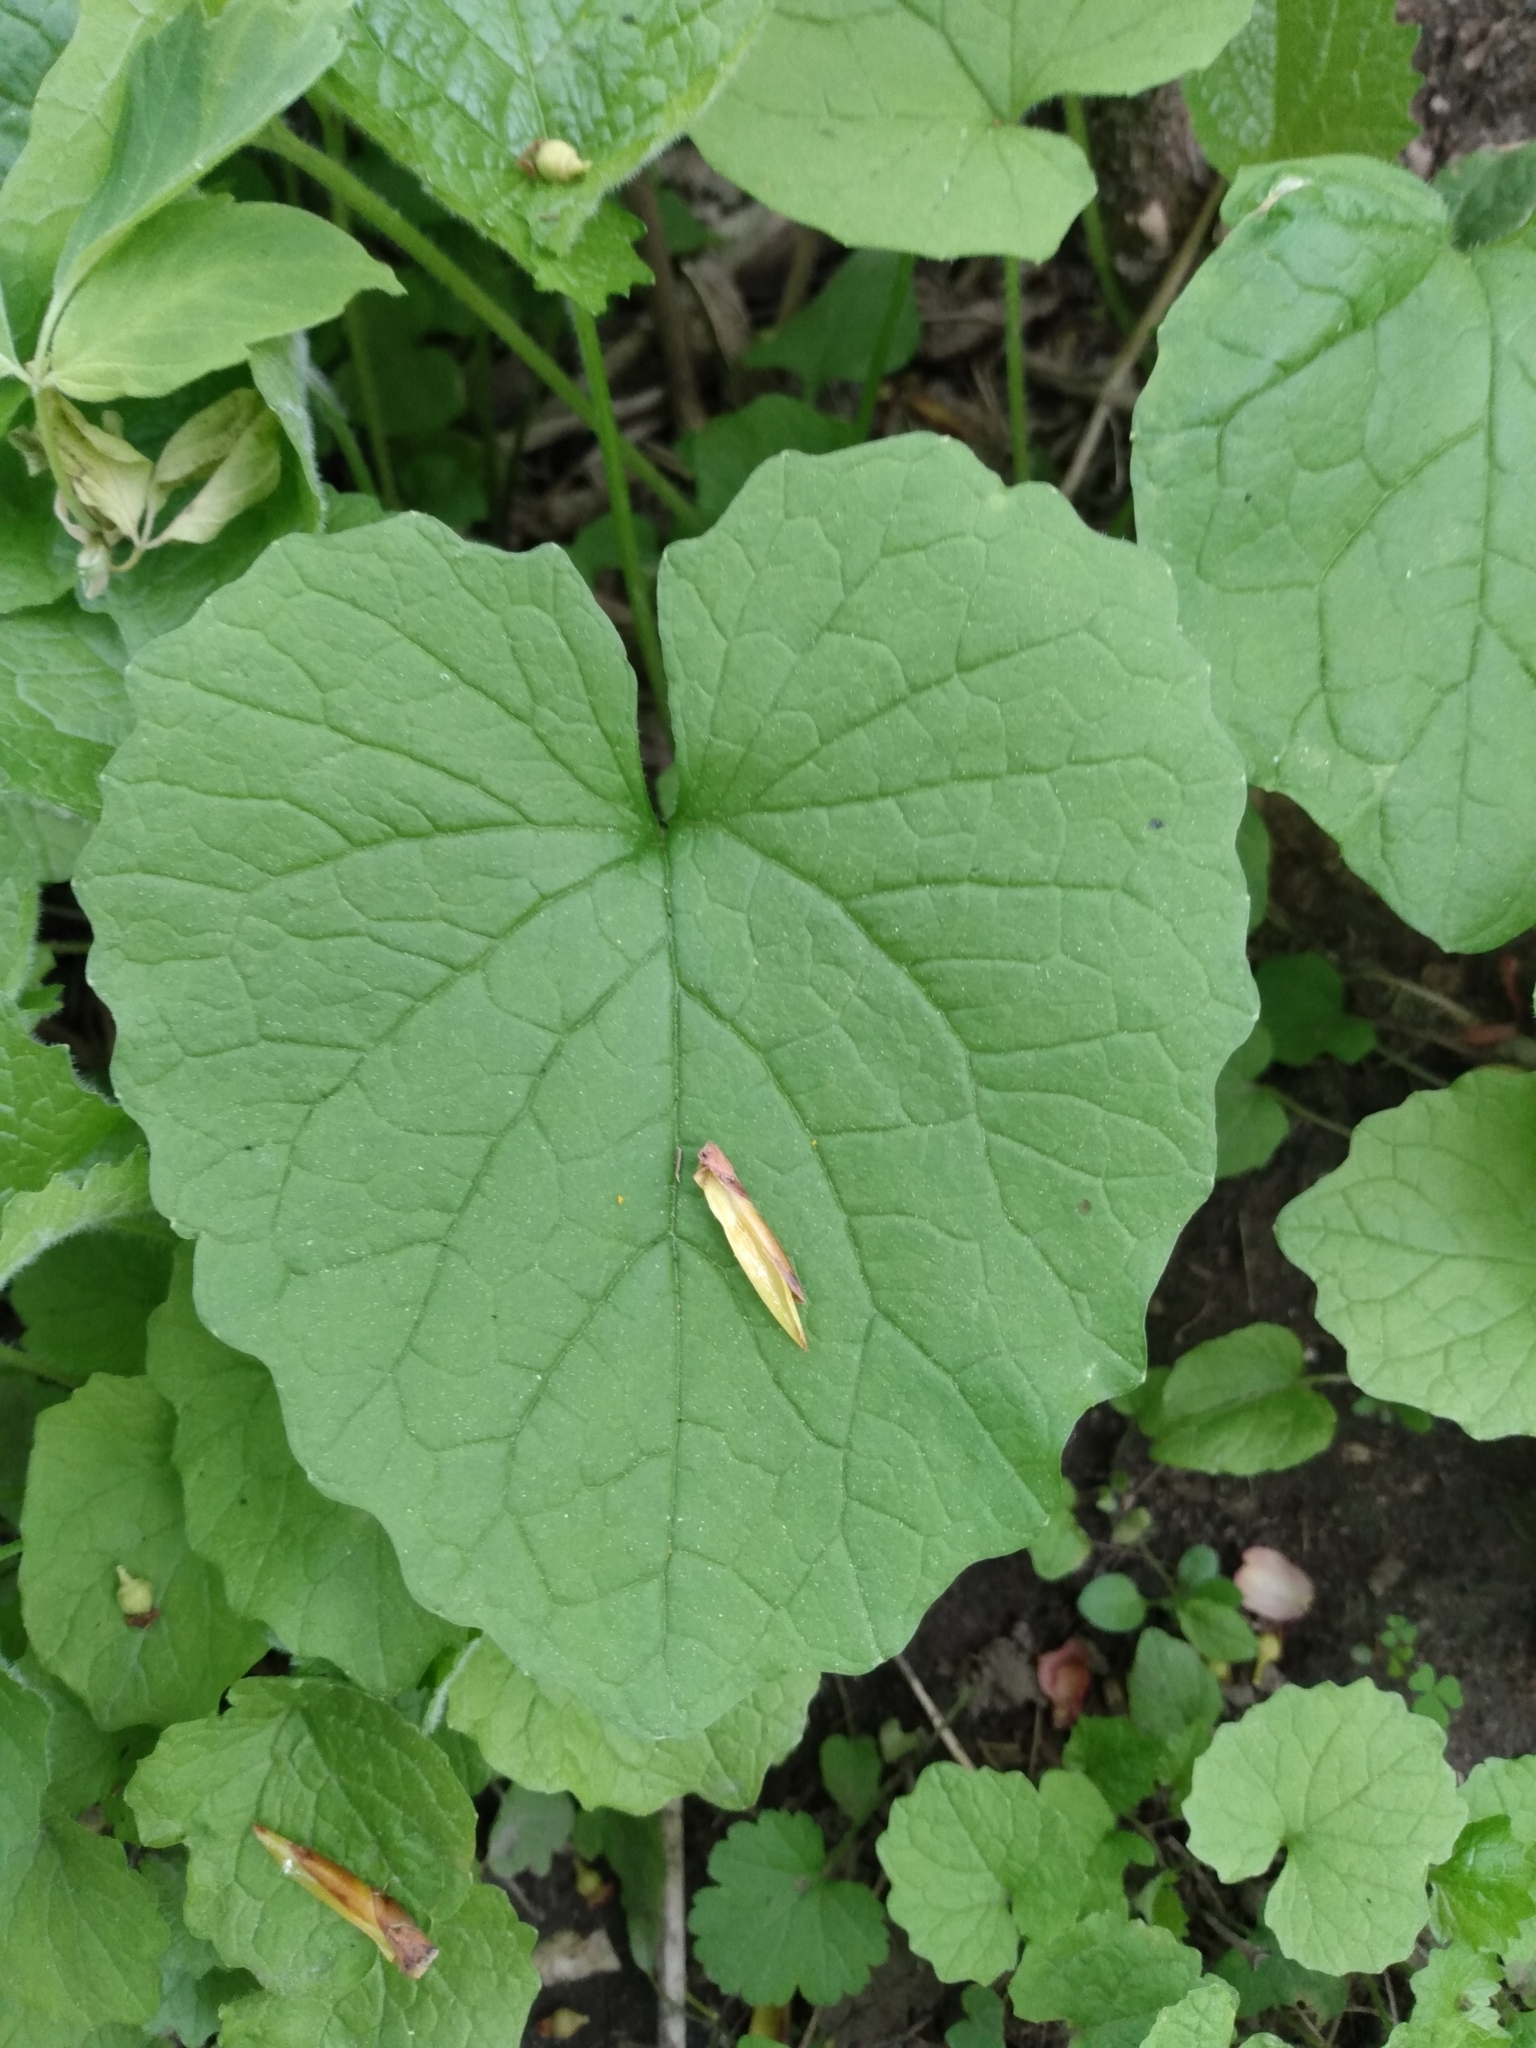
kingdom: Plantae
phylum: Tracheophyta
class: Magnoliopsida
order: Brassicales
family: Brassicaceae
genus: Alliaria
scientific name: Alliaria petiolata
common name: Garlic mustard
